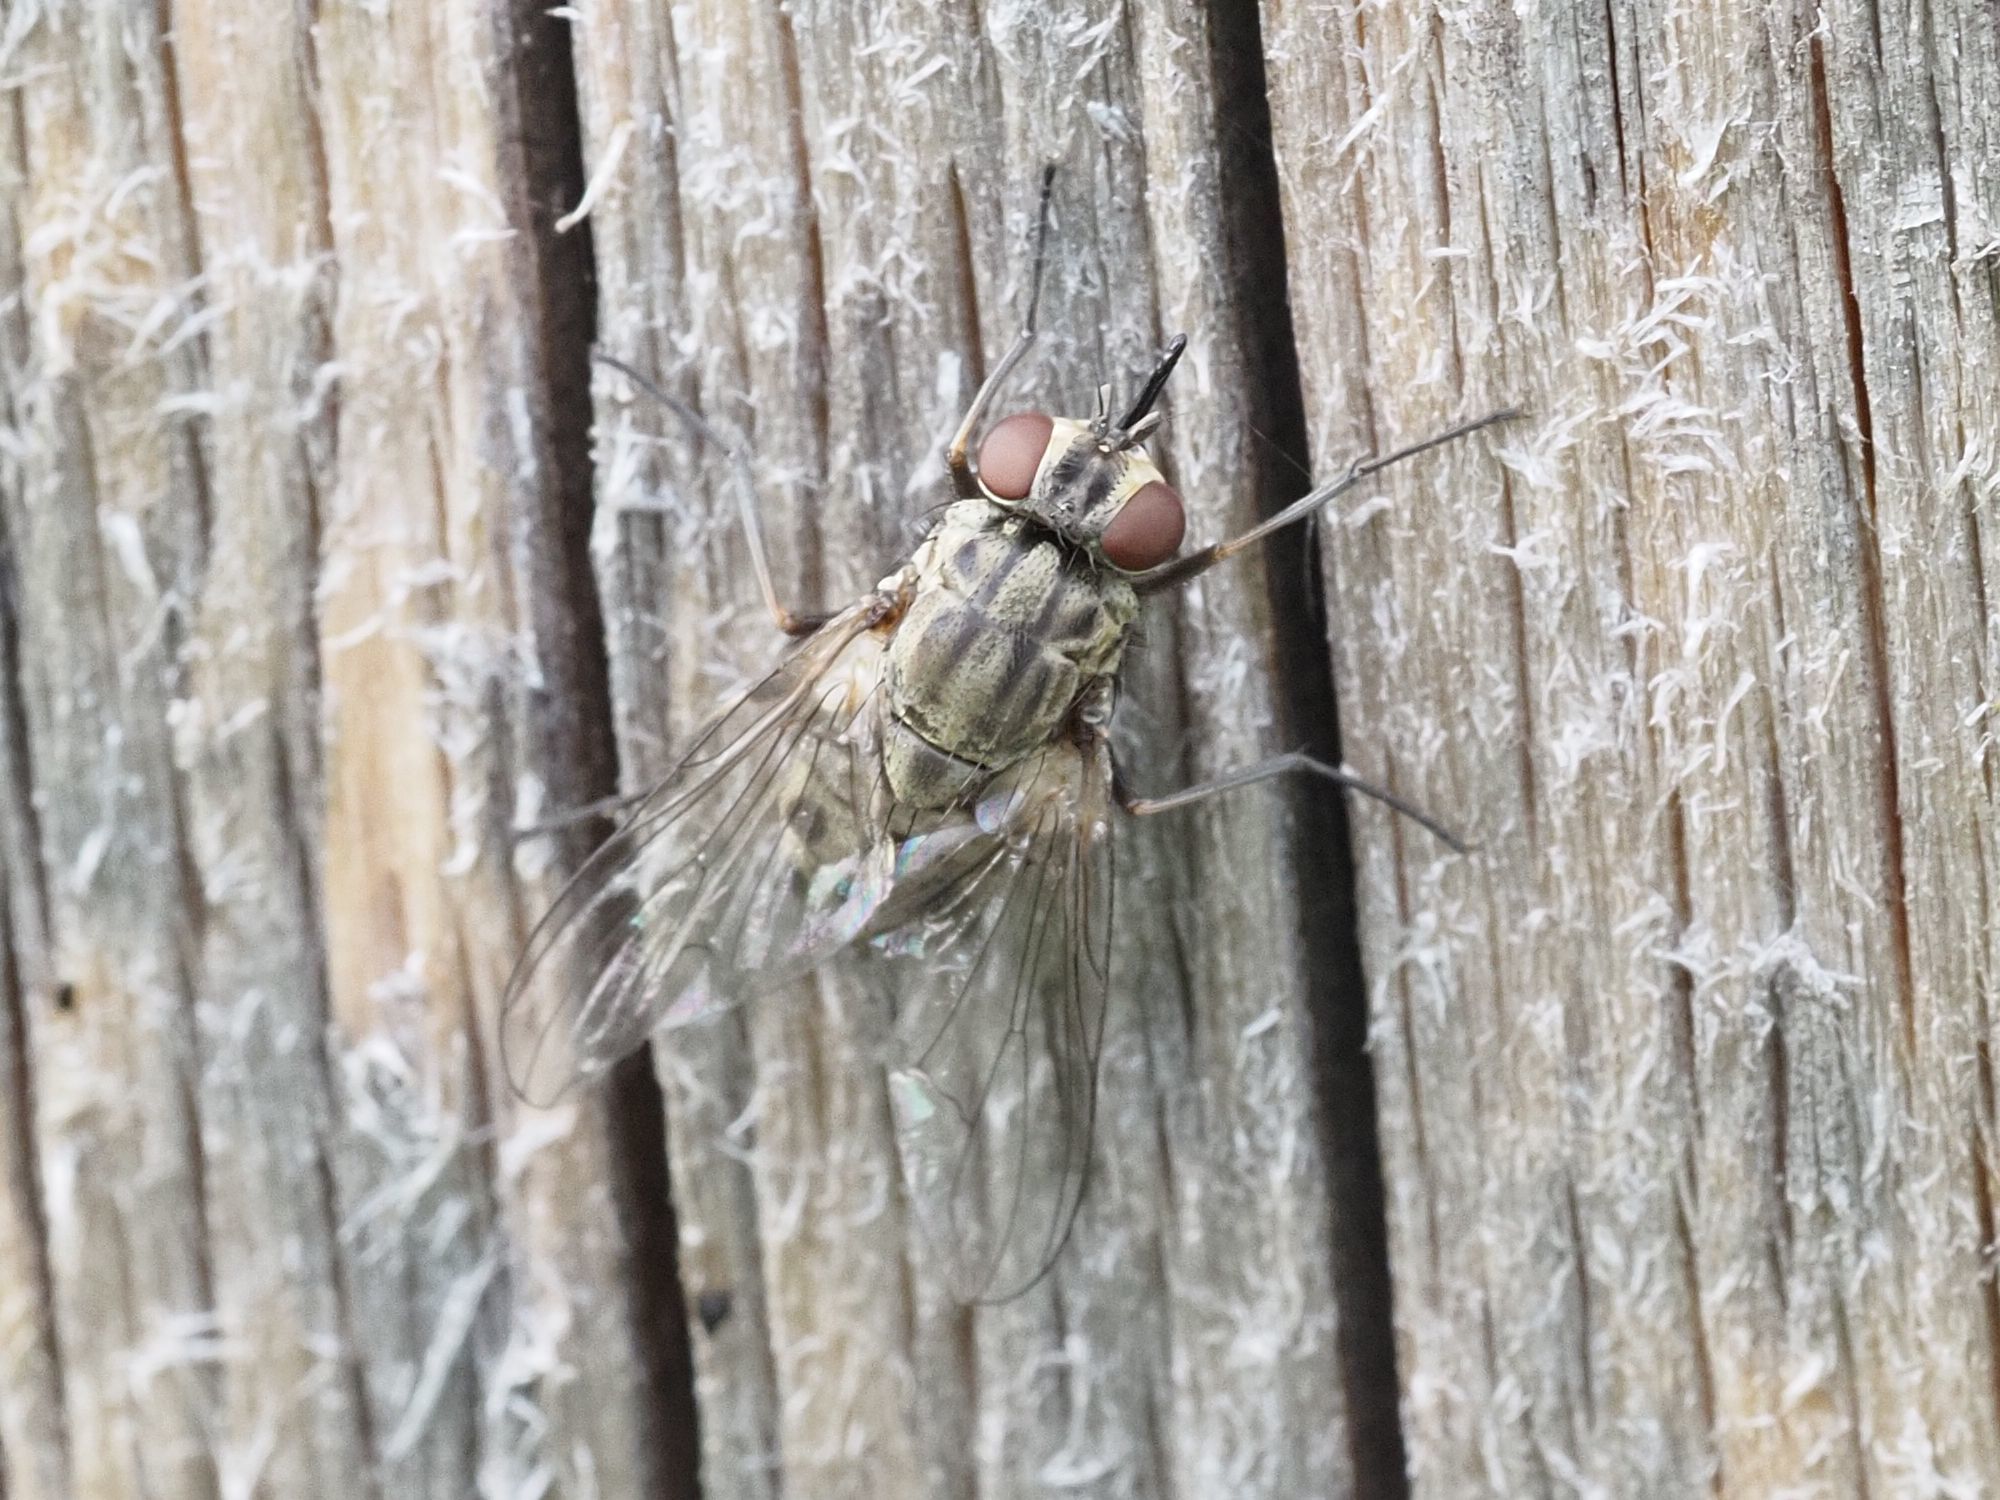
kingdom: Animalia
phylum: Arthropoda
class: Insecta
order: Diptera
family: Muscidae
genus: Stomoxys
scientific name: Stomoxys calcitrans
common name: Stable fly
